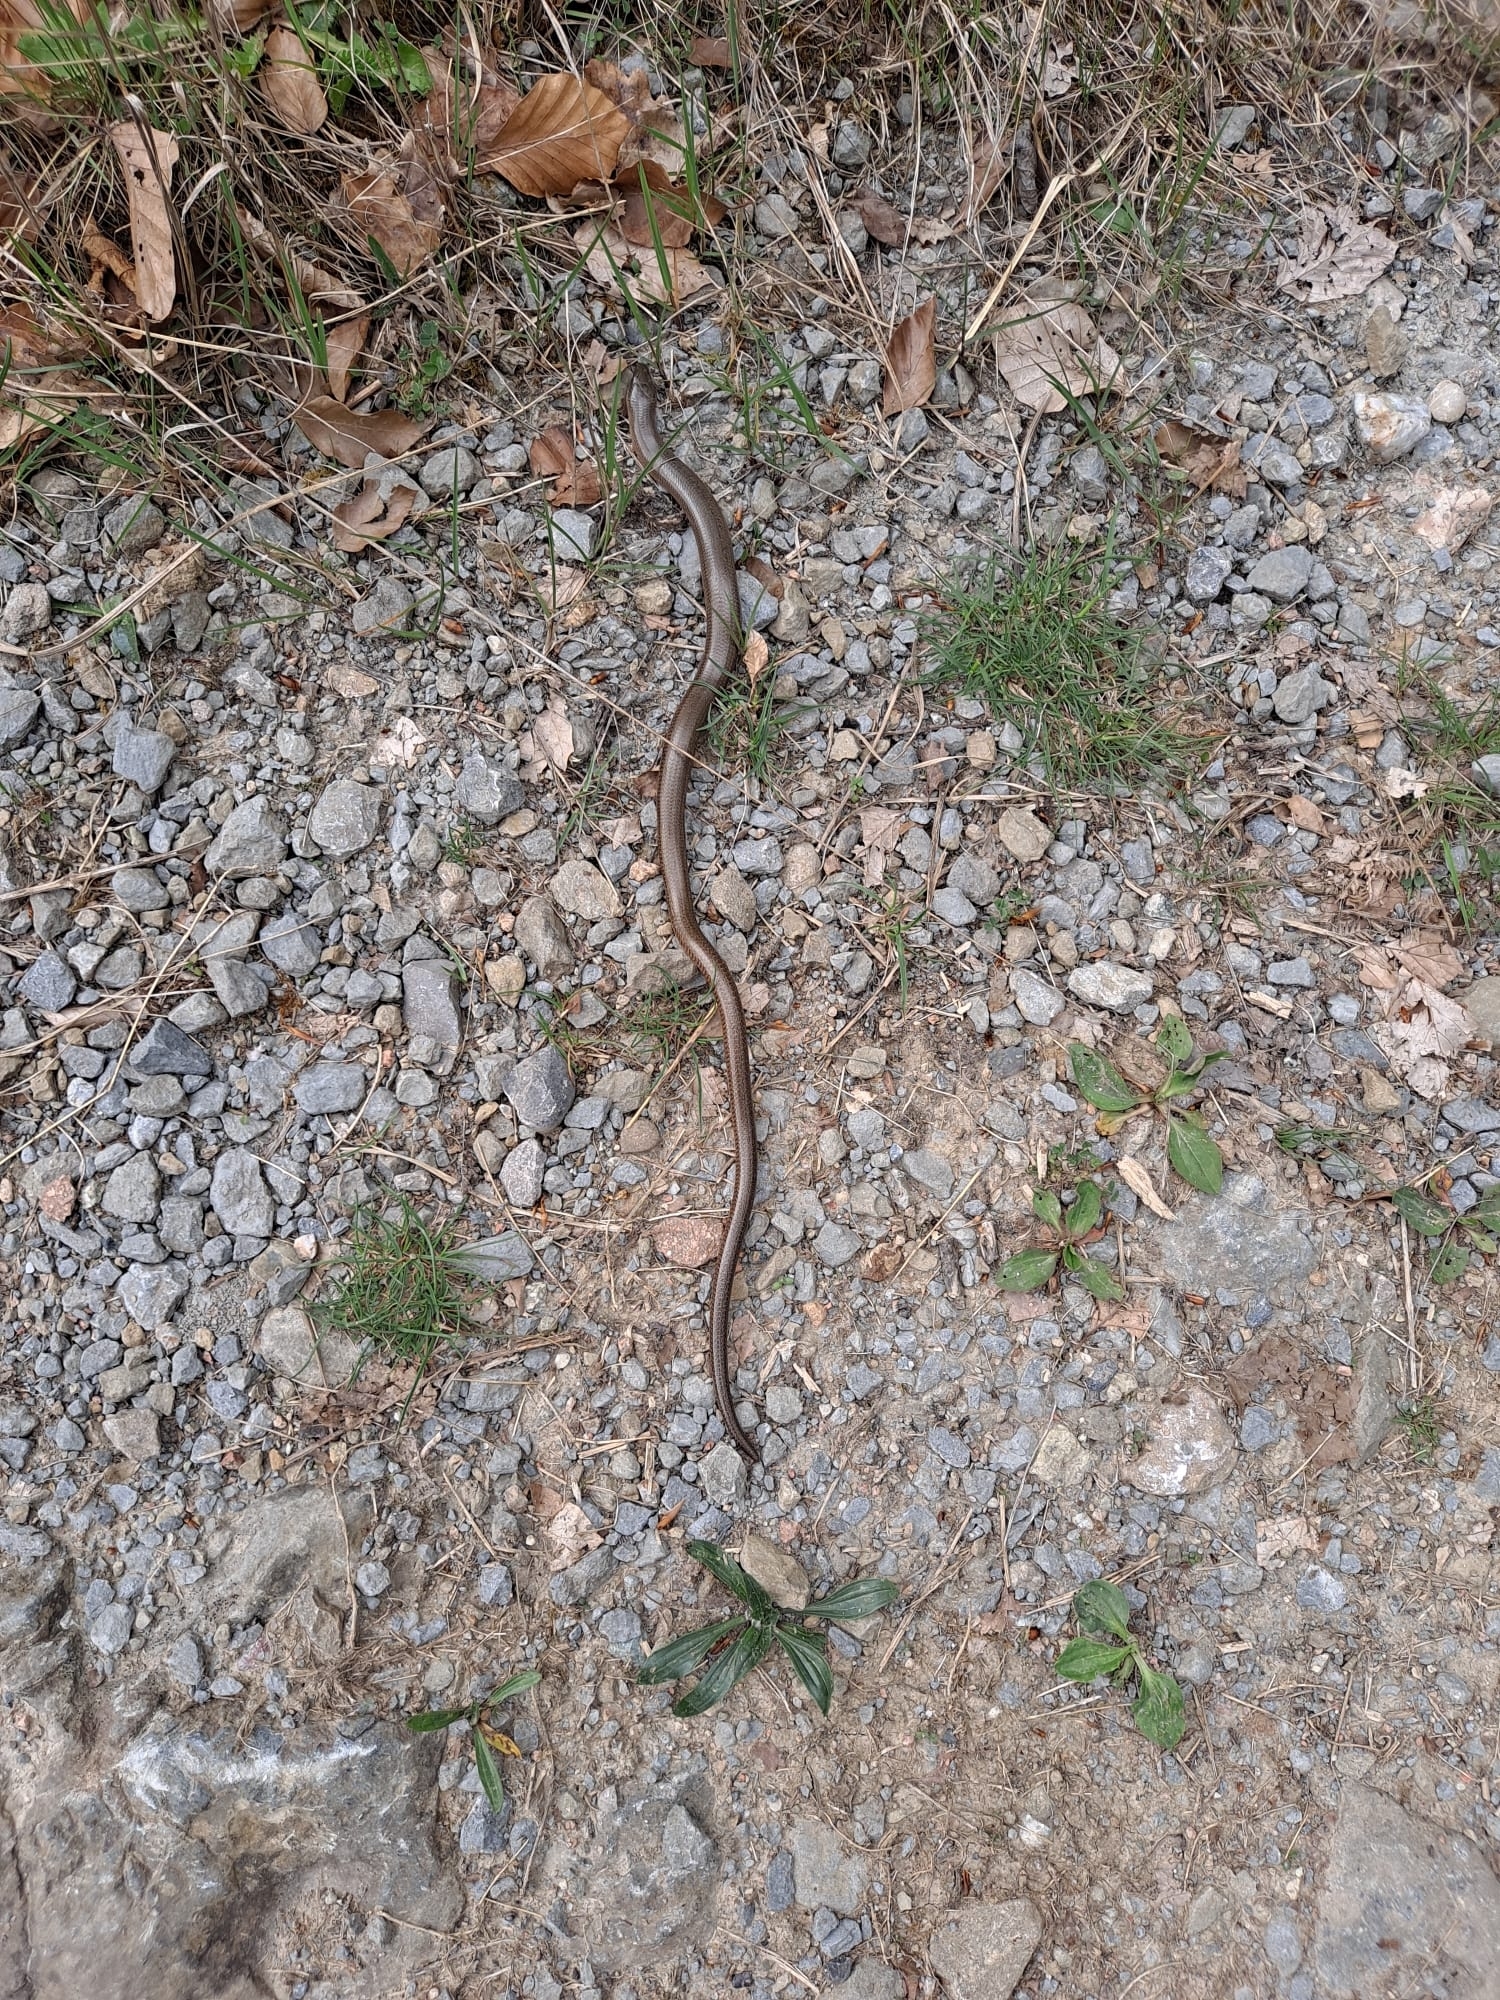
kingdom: Animalia
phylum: Chordata
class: Squamata
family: Anguidae
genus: Anguis
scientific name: Anguis fragilis
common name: Slow worm
